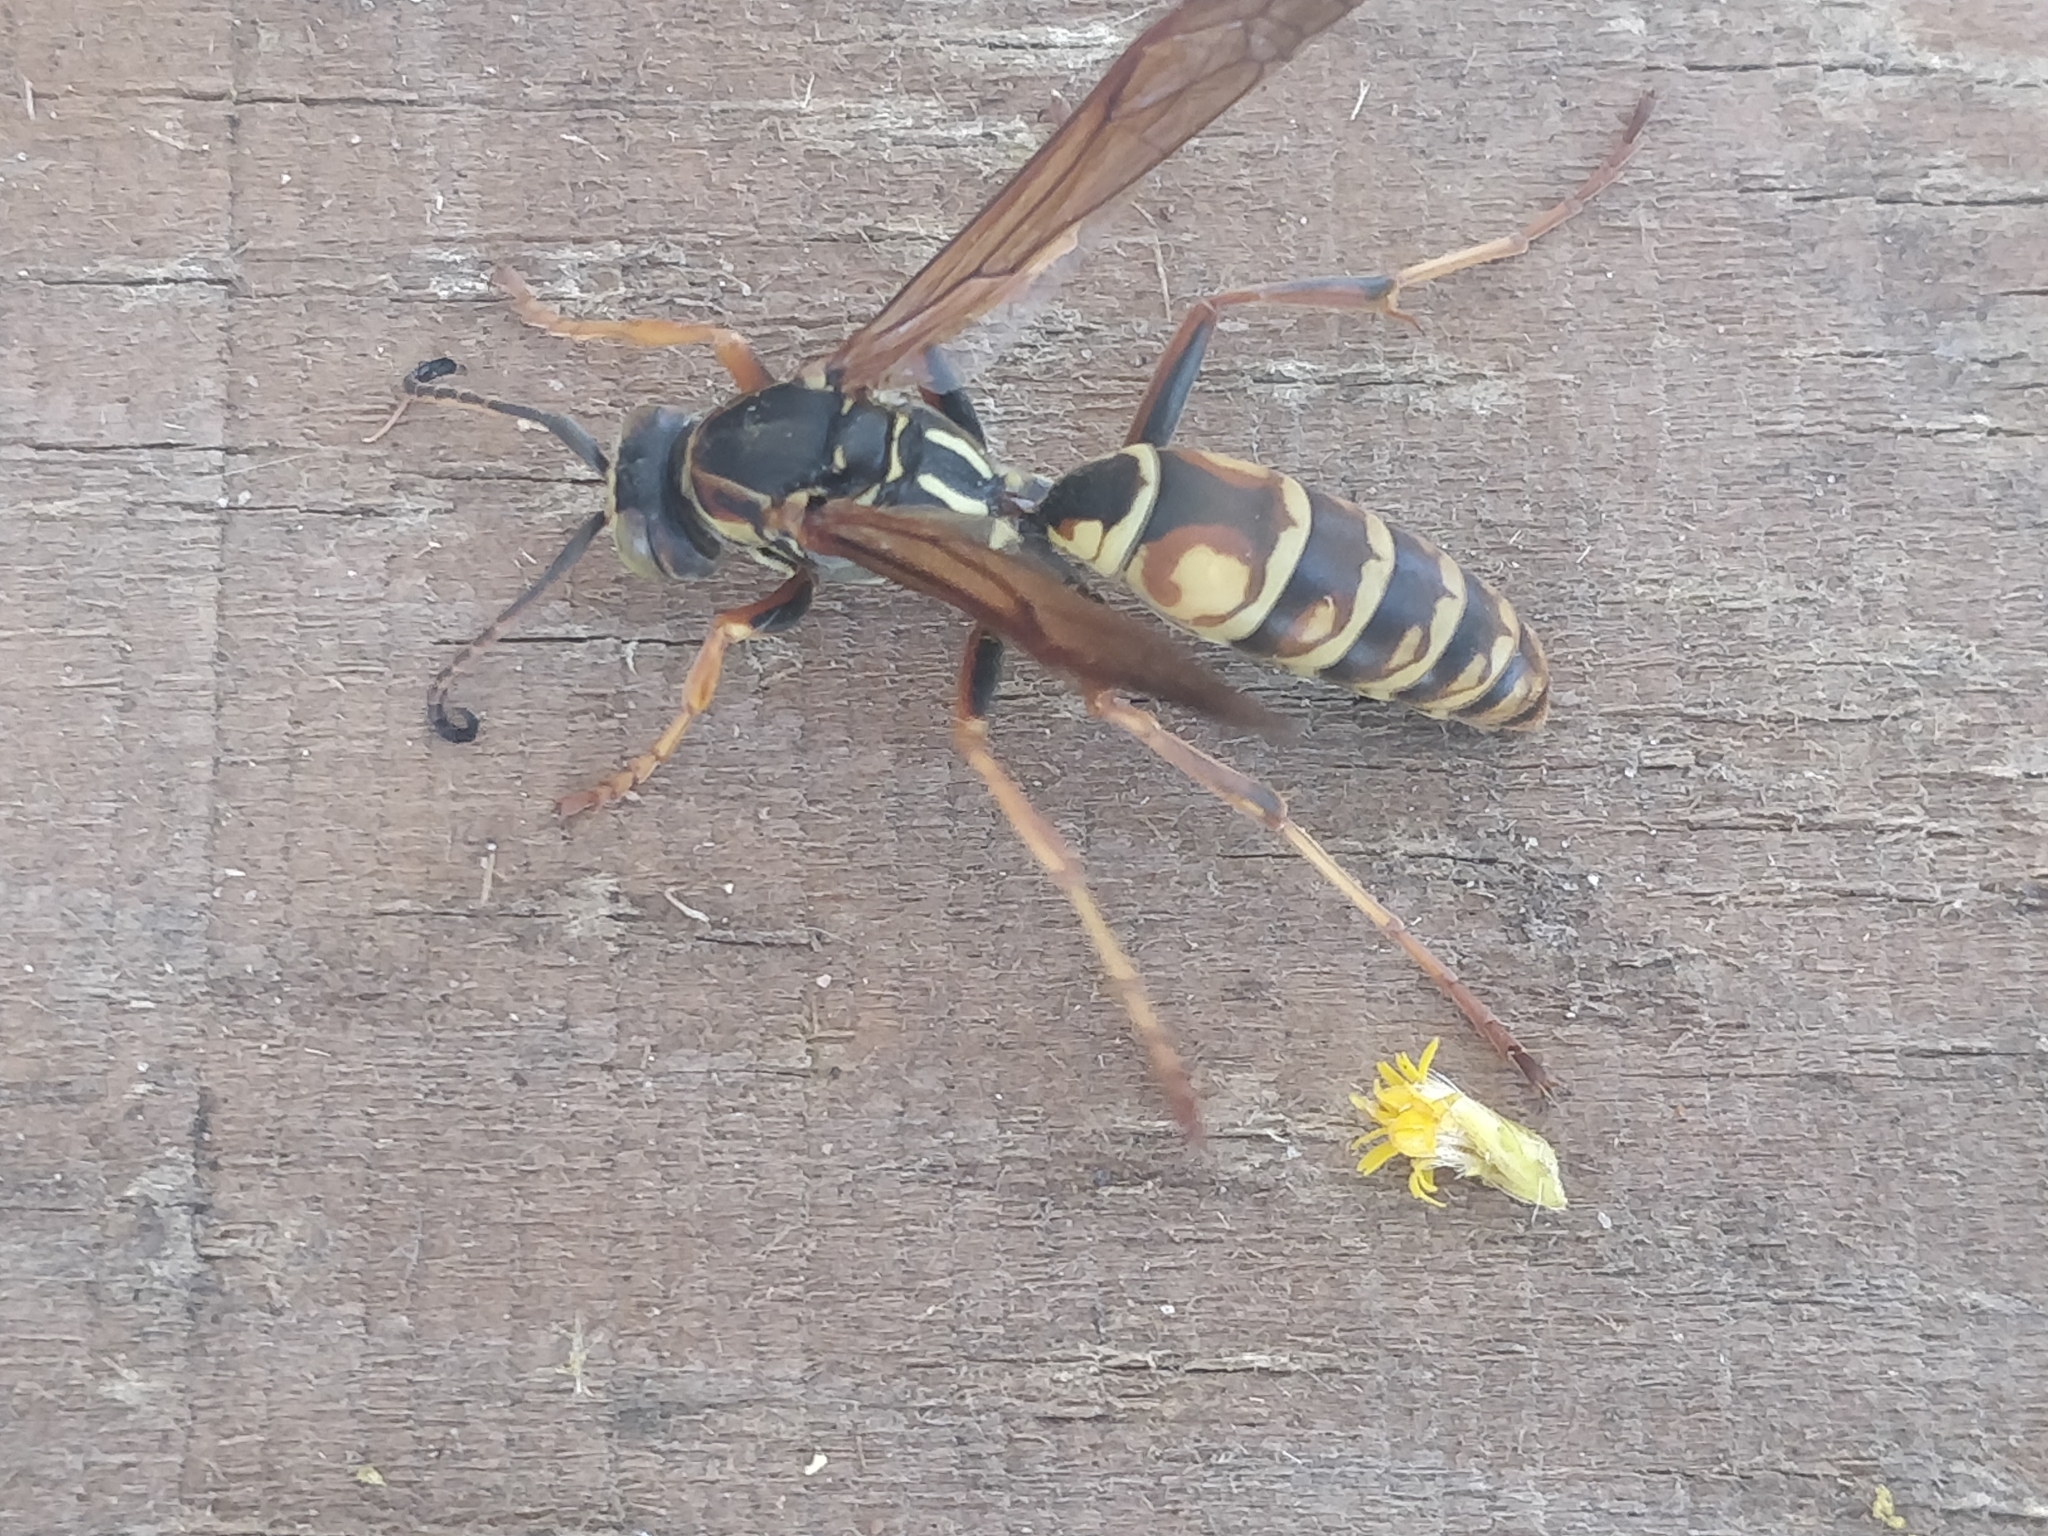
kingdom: Animalia
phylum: Arthropoda
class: Insecta
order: Hymenoptera
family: Eumenidae
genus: Polistes
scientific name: Polistes fuscatus
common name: Dark paper wasp
